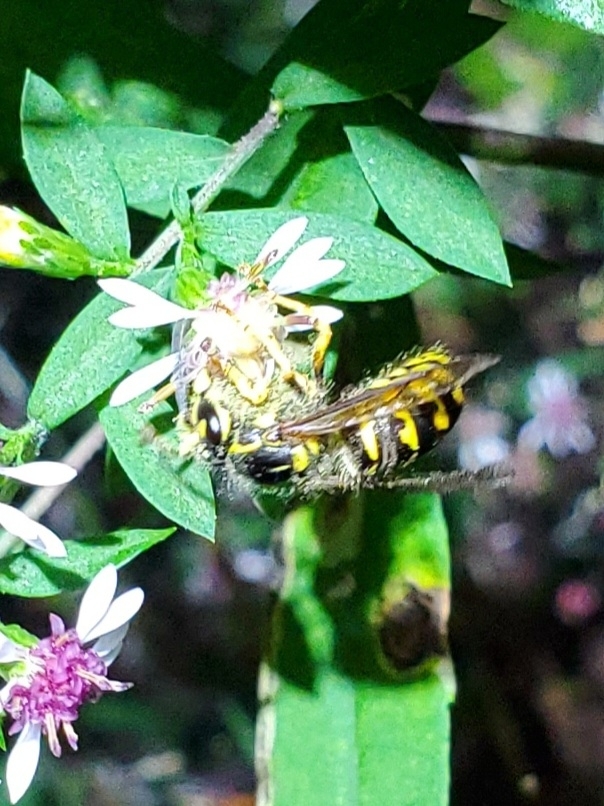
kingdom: Animalia
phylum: Arthropoda
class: Insecta
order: Hymenoptera
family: Vespidae
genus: Dolichovespula
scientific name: Dolichovespula arenaria
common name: Aerial yellowjacket
